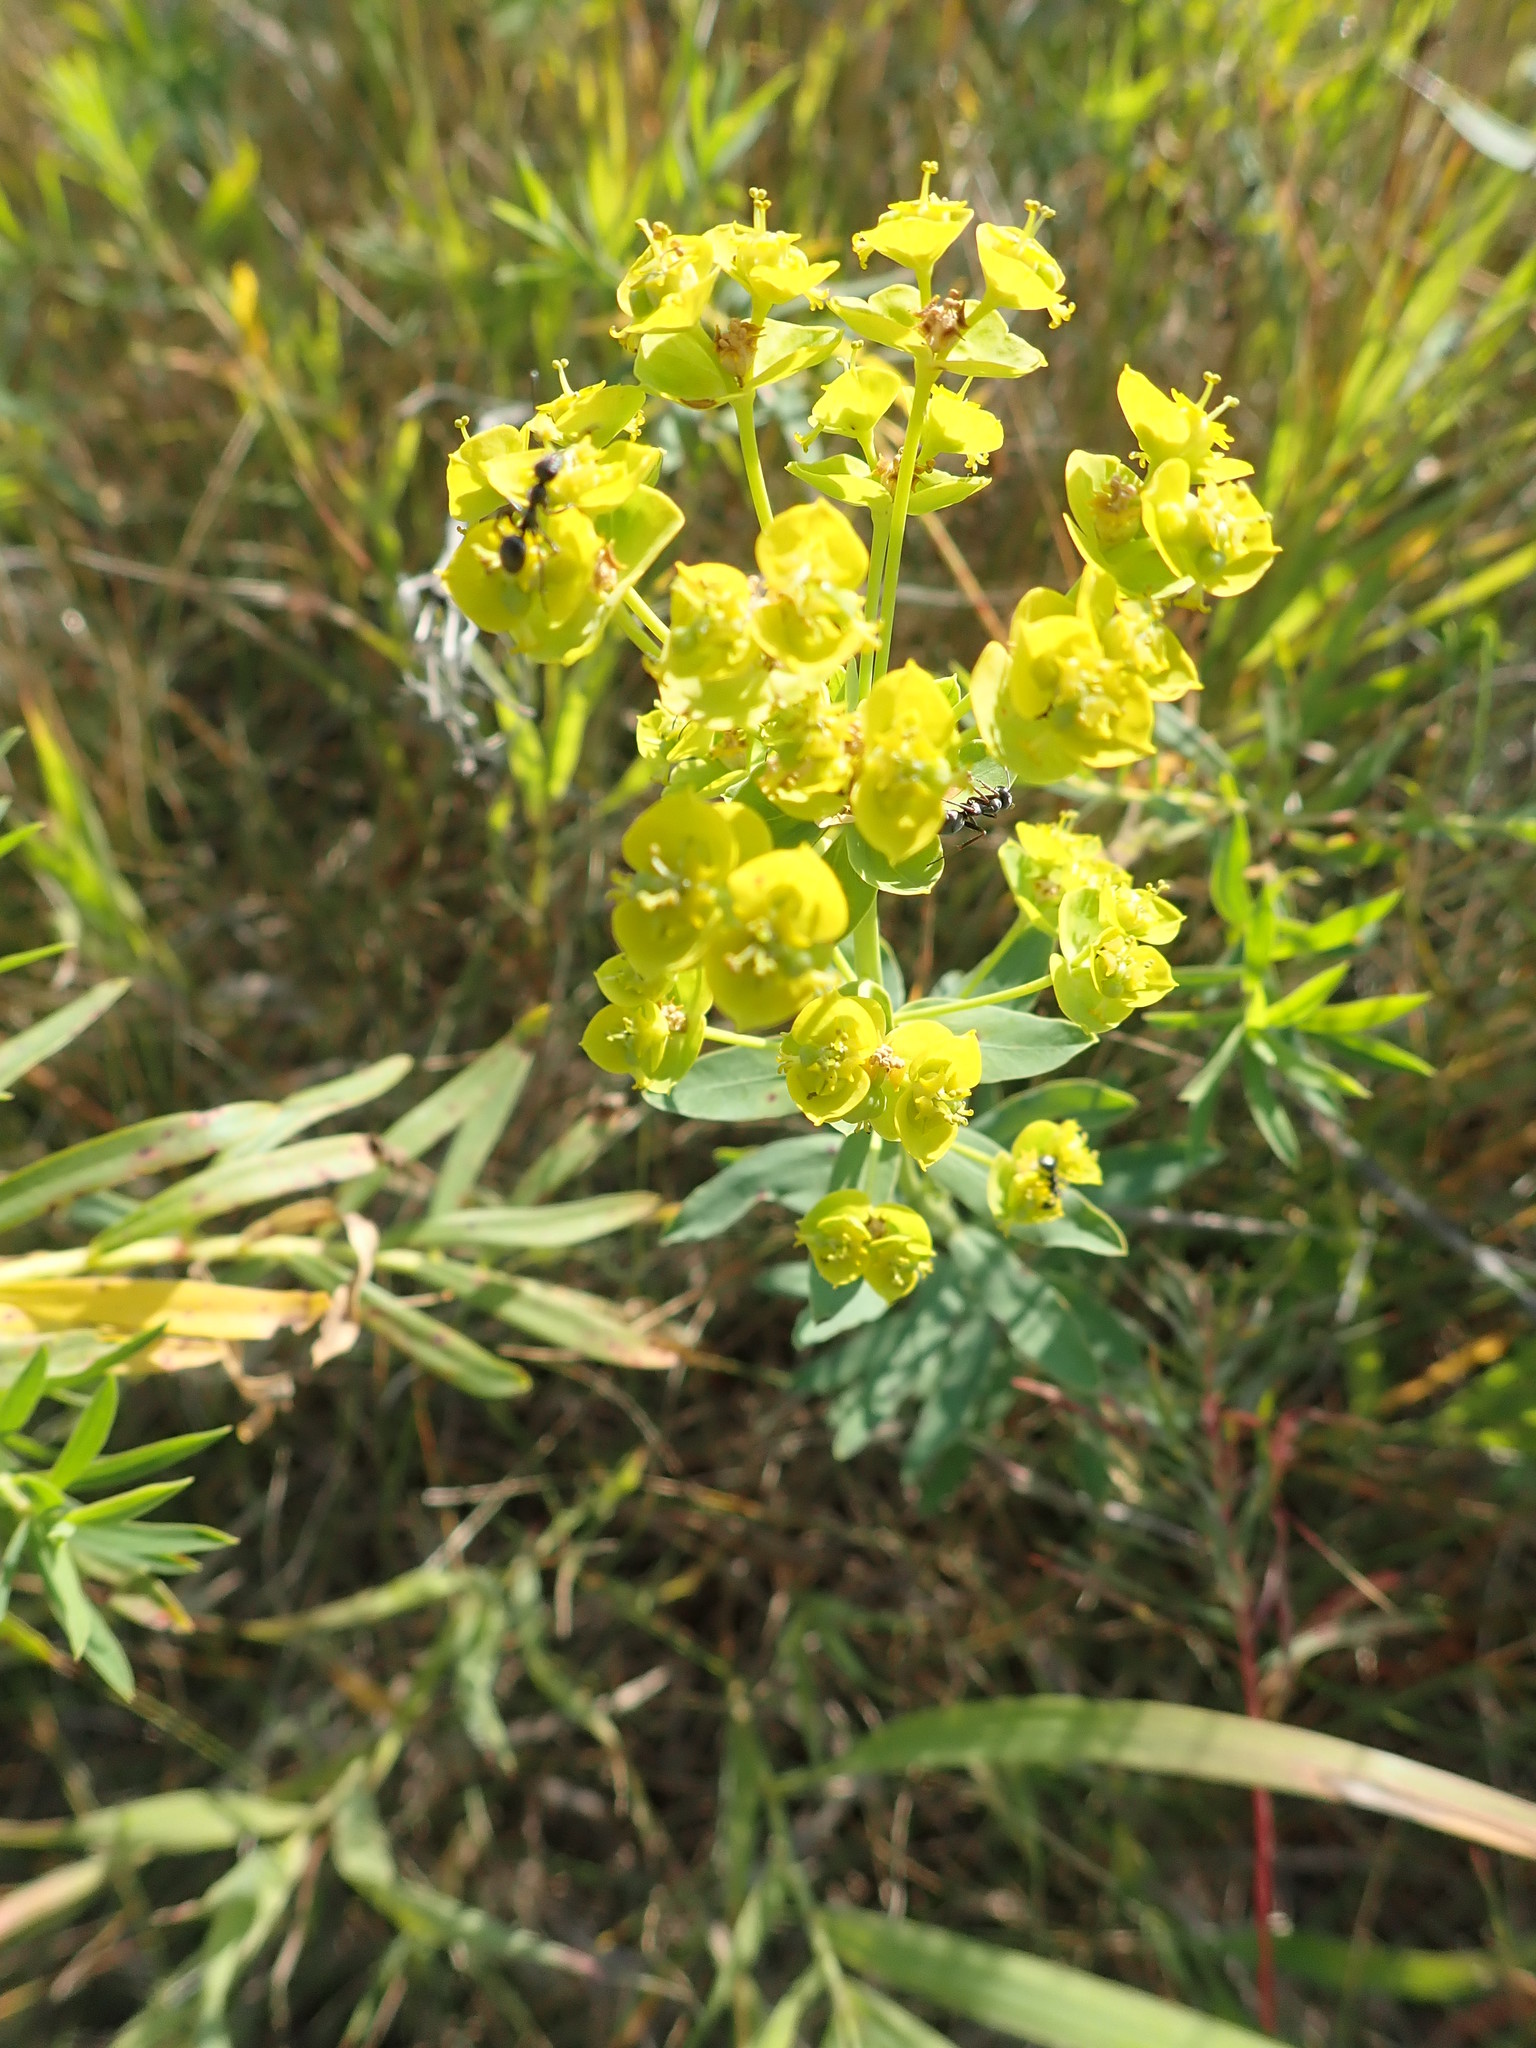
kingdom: Plantae
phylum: Tracheophyta
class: Magnoliopsida
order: Malpighiales
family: Euphorbiaceae
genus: Euphorbia
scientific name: Euphorbia virgata
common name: Leafy spurge
